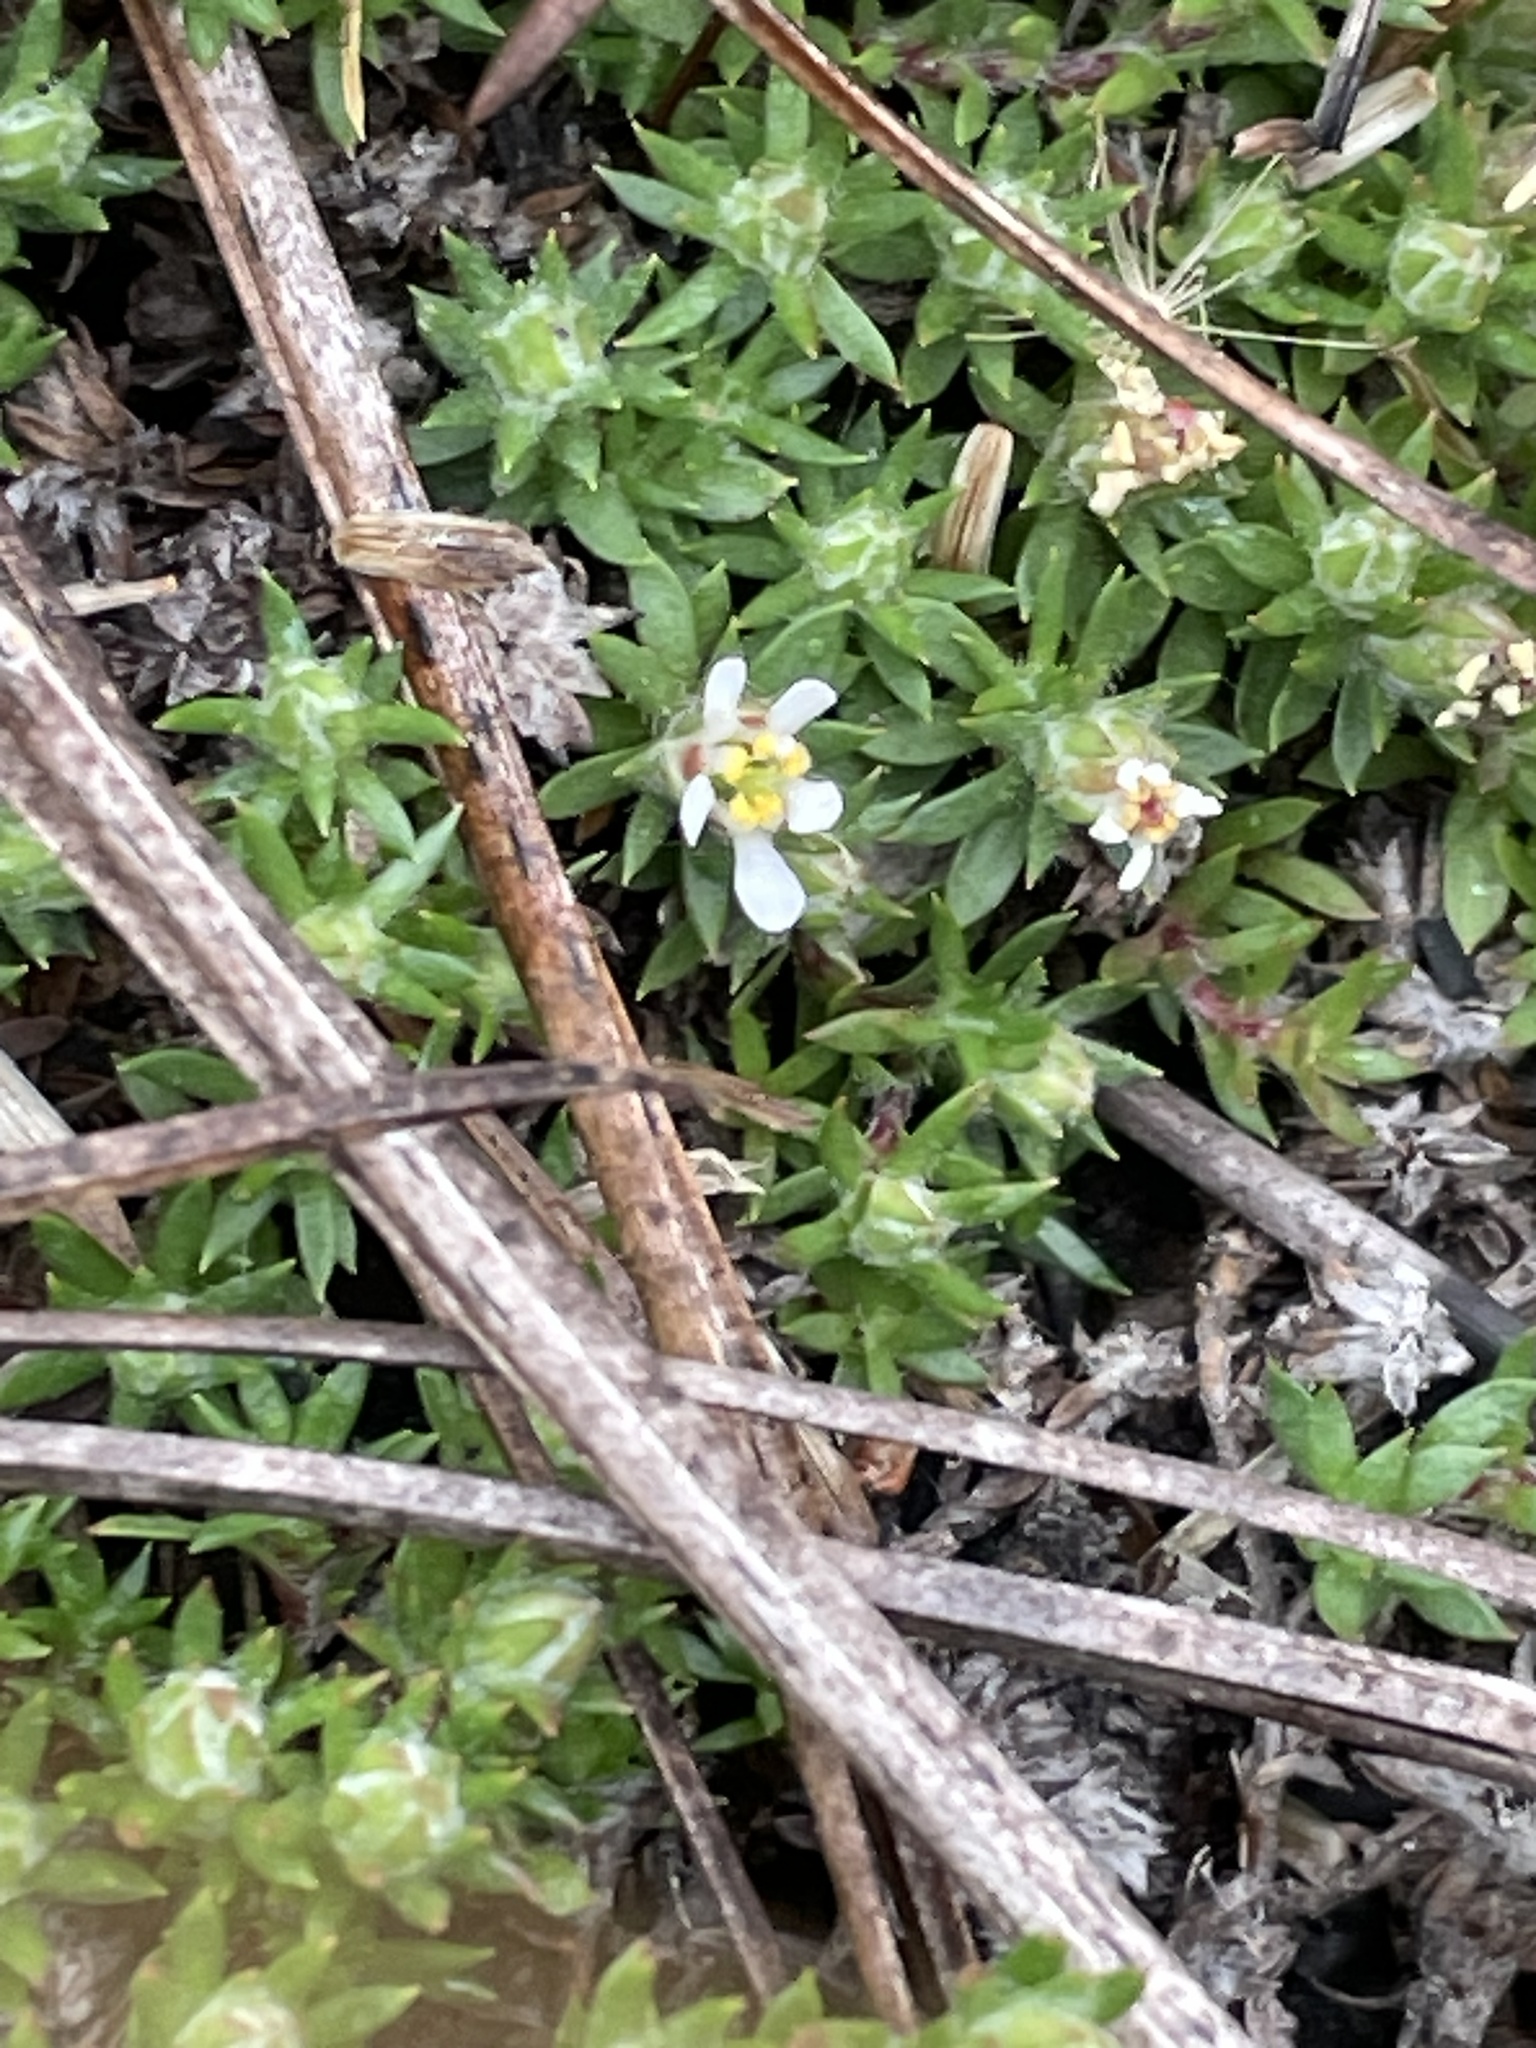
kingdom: Plantae
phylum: Tracheophyta
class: Magnoliopsida
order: Ericales
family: Diapensiaceae
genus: Pyxidanthera
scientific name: Pyxidanthera brevifolia
